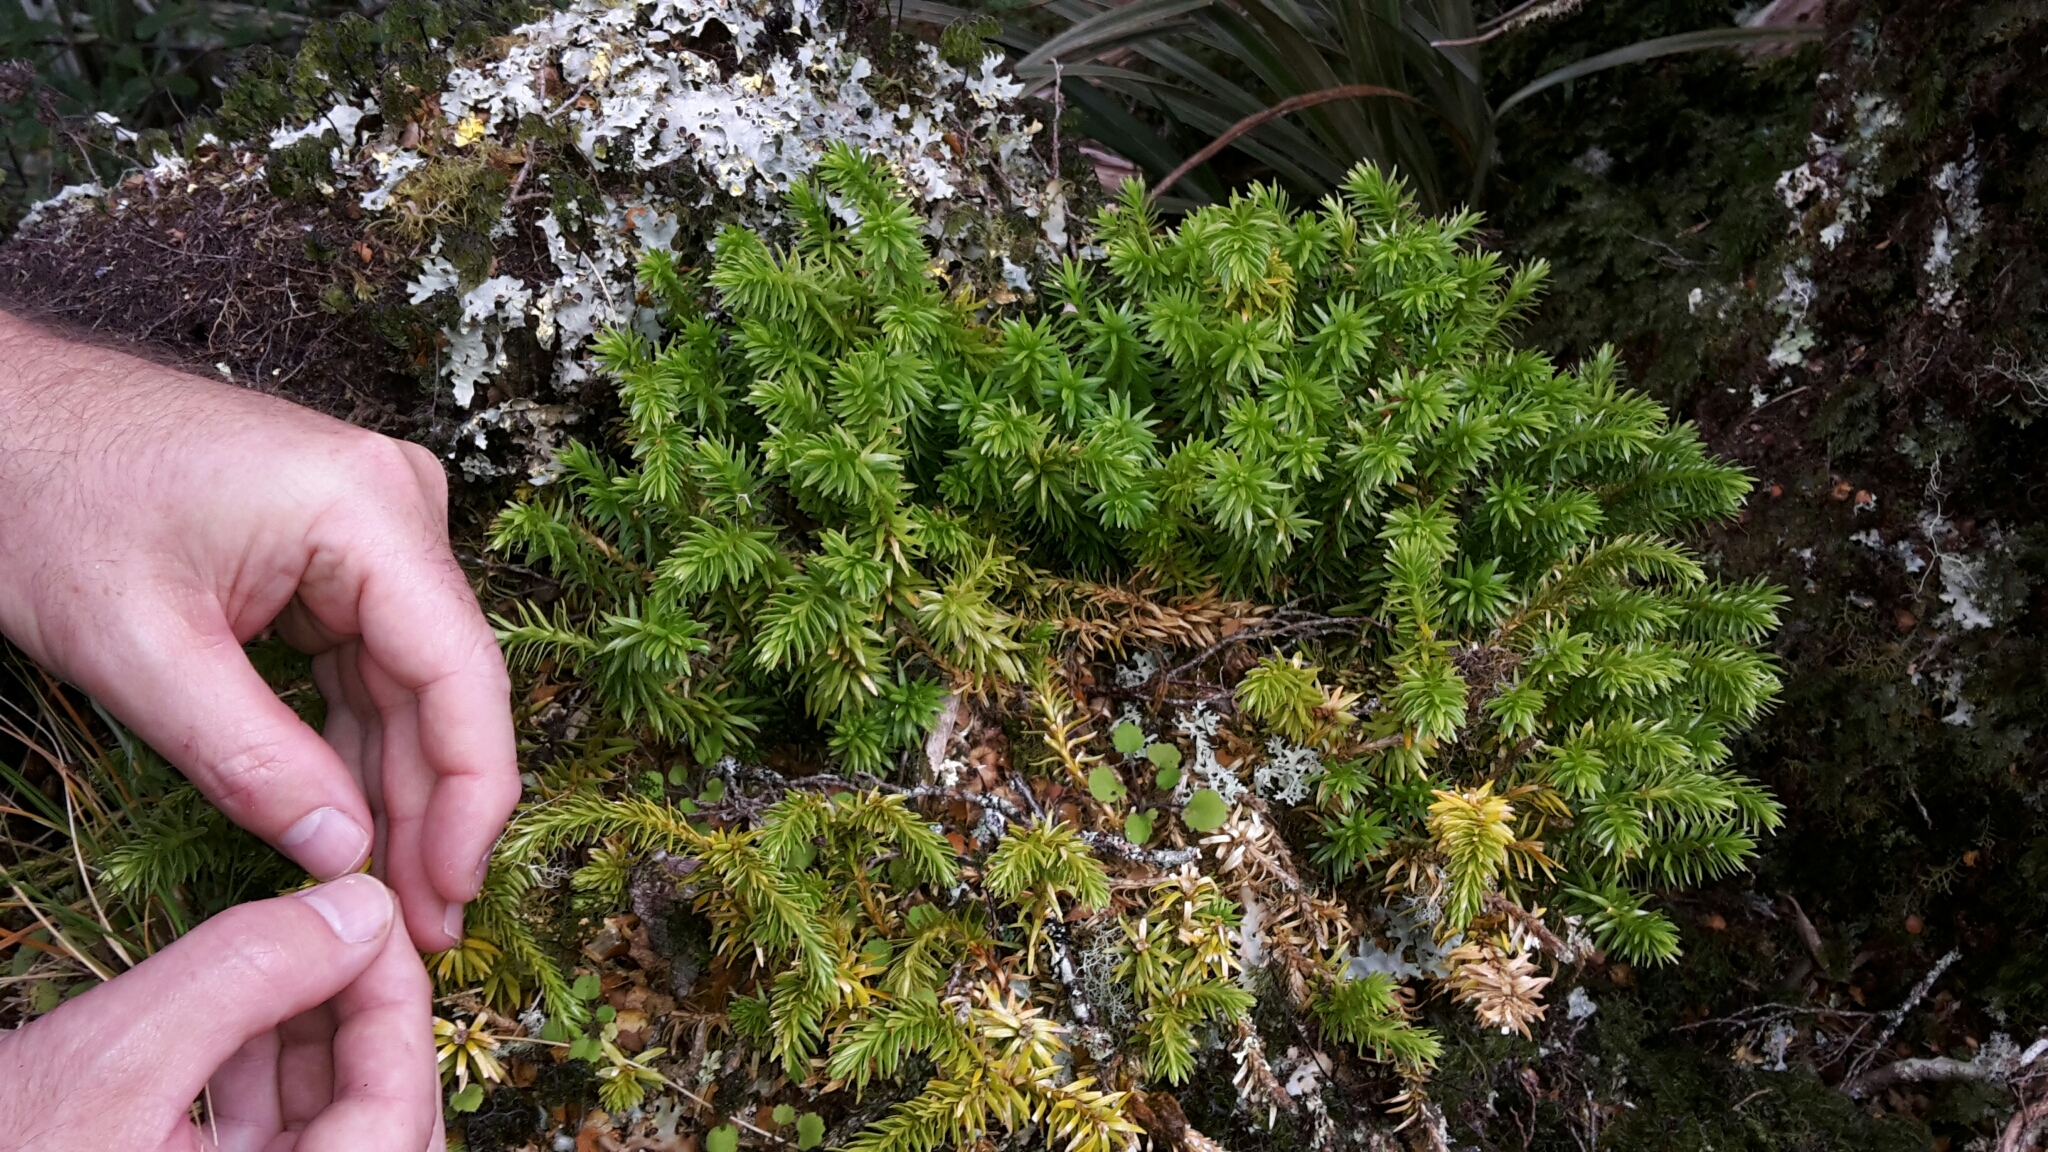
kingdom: Plantae
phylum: Tracheophyta
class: Lycopodiopsida
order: Lycopodiales
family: Lycopodiaceae
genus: Phlegmariurus
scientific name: Phlegmariurus varius
